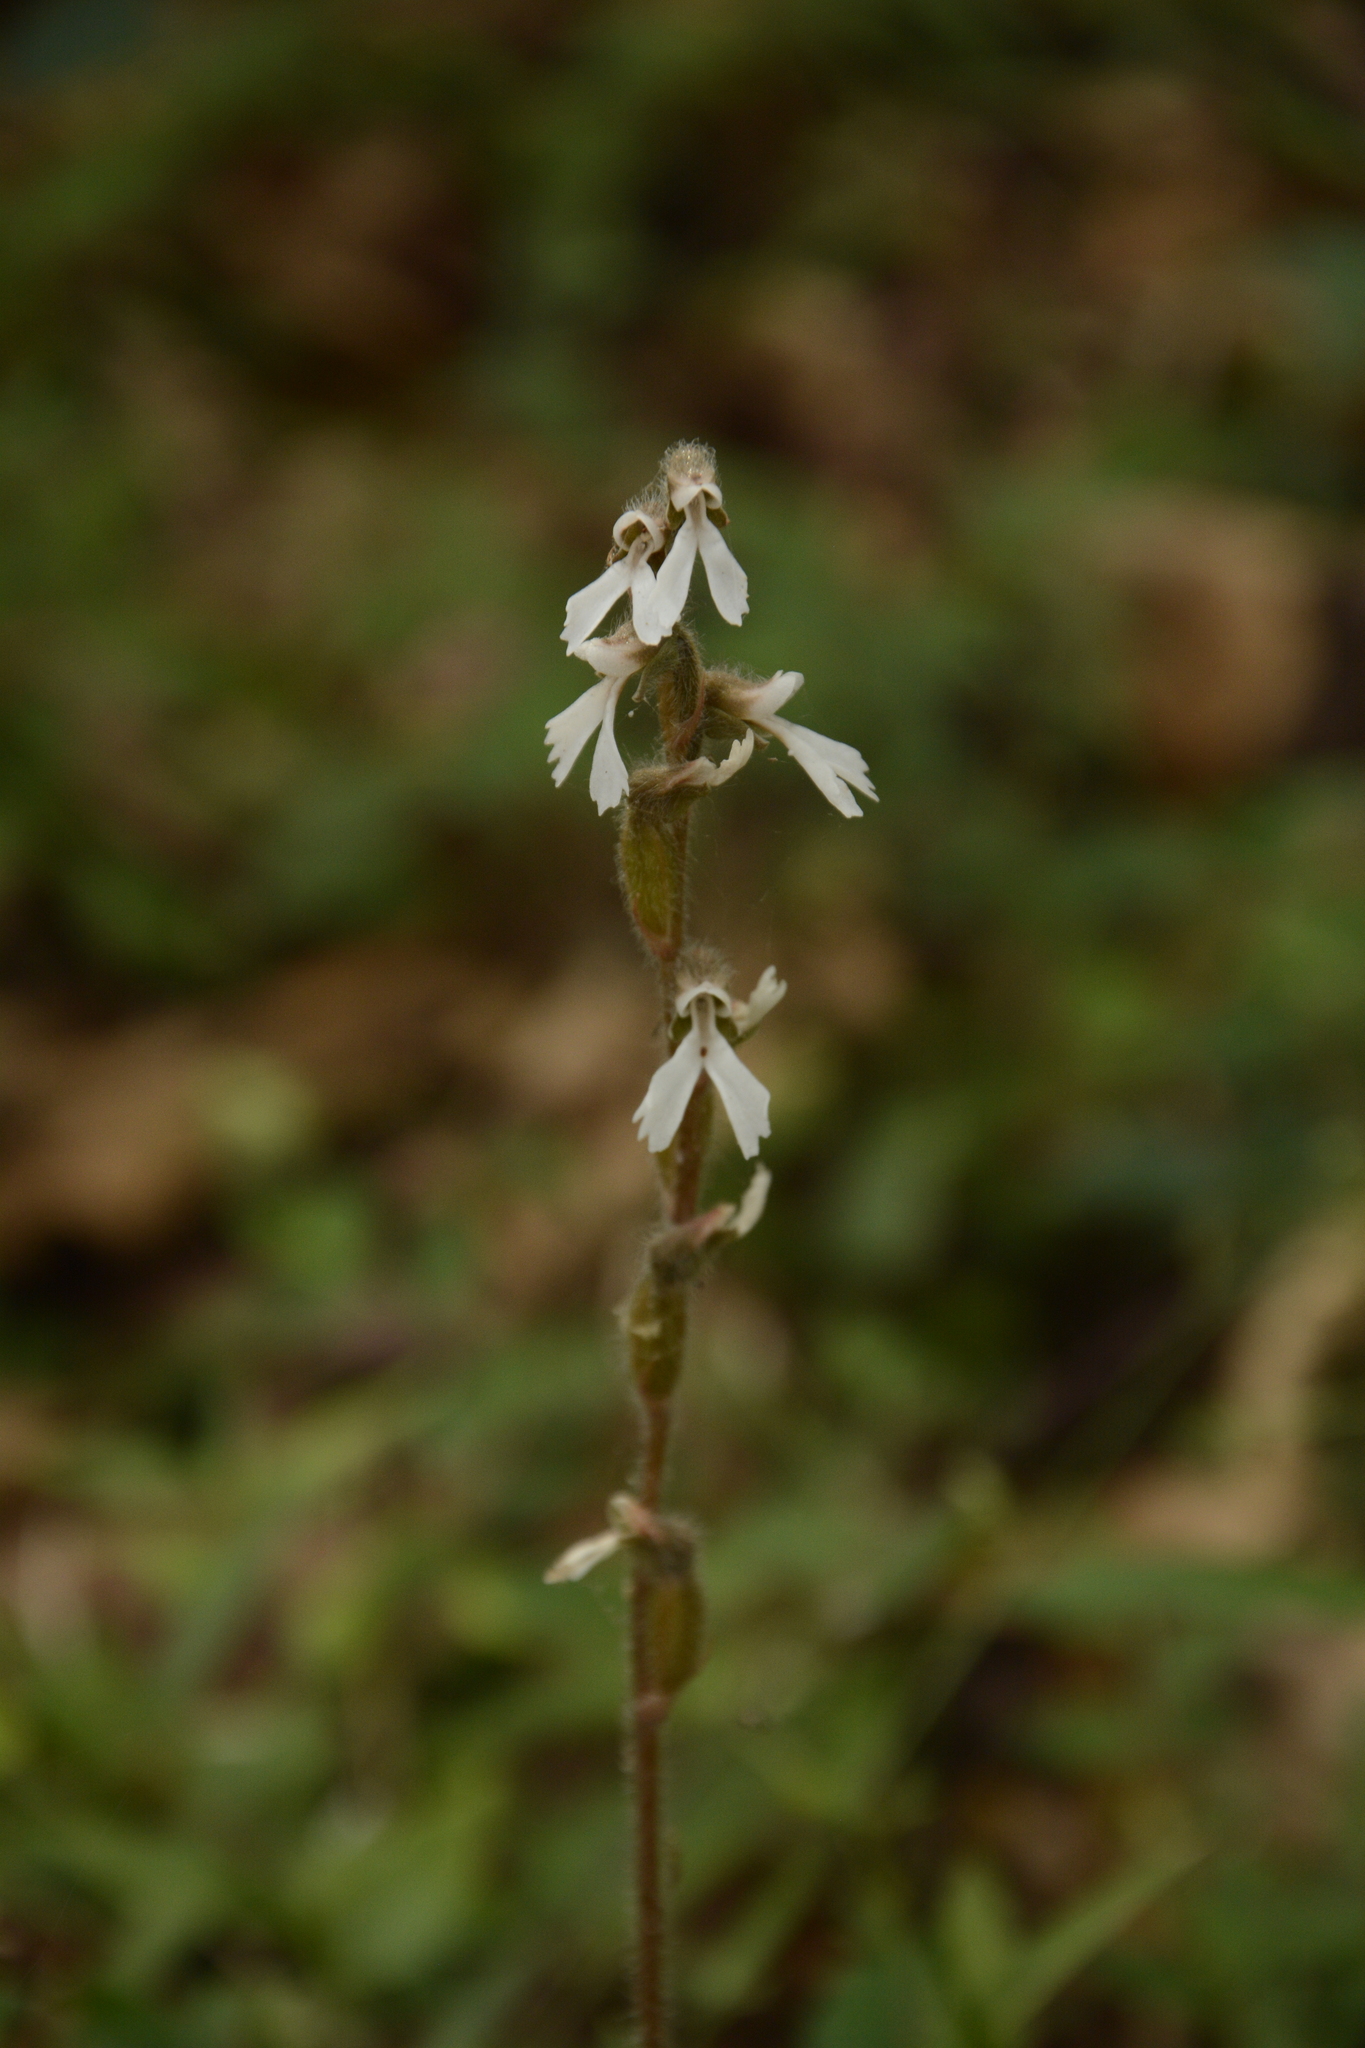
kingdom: Plantae
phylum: Tracheophyta
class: Liliopsida
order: Asparagales
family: Orchidaceae
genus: Zeuxine
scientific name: Zeuxine longilabris
